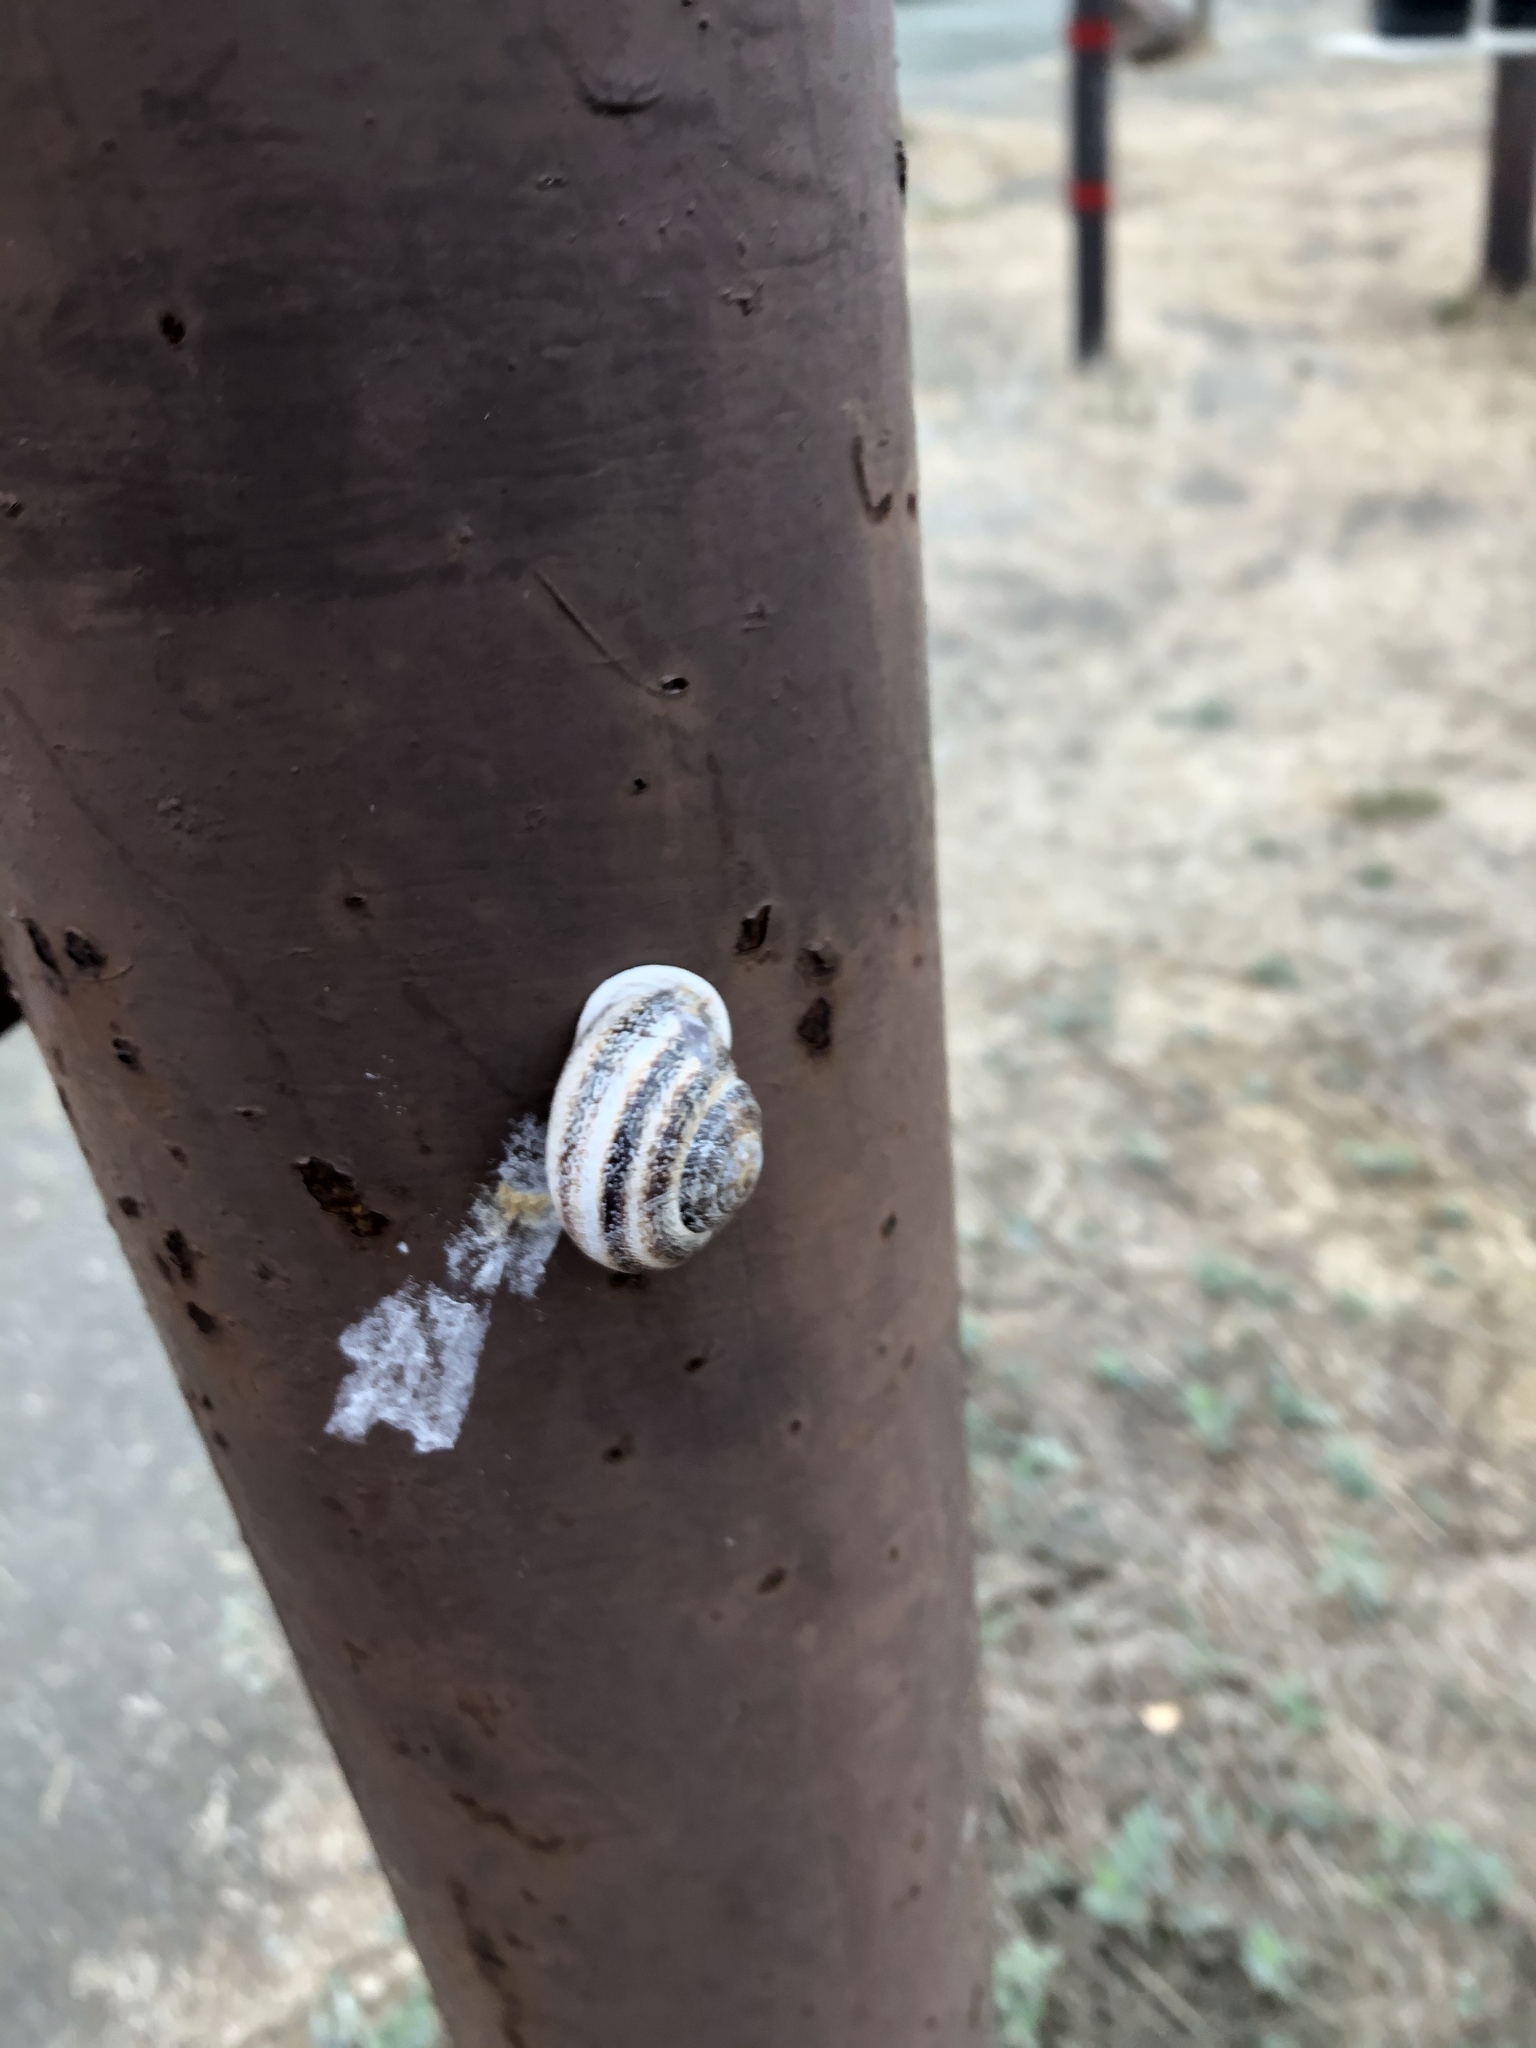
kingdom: Animalia
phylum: Mollusca
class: Gastropoda
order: Stylommatophora
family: Helicidae
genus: Otala
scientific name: Otala lactea
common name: Milk snail
